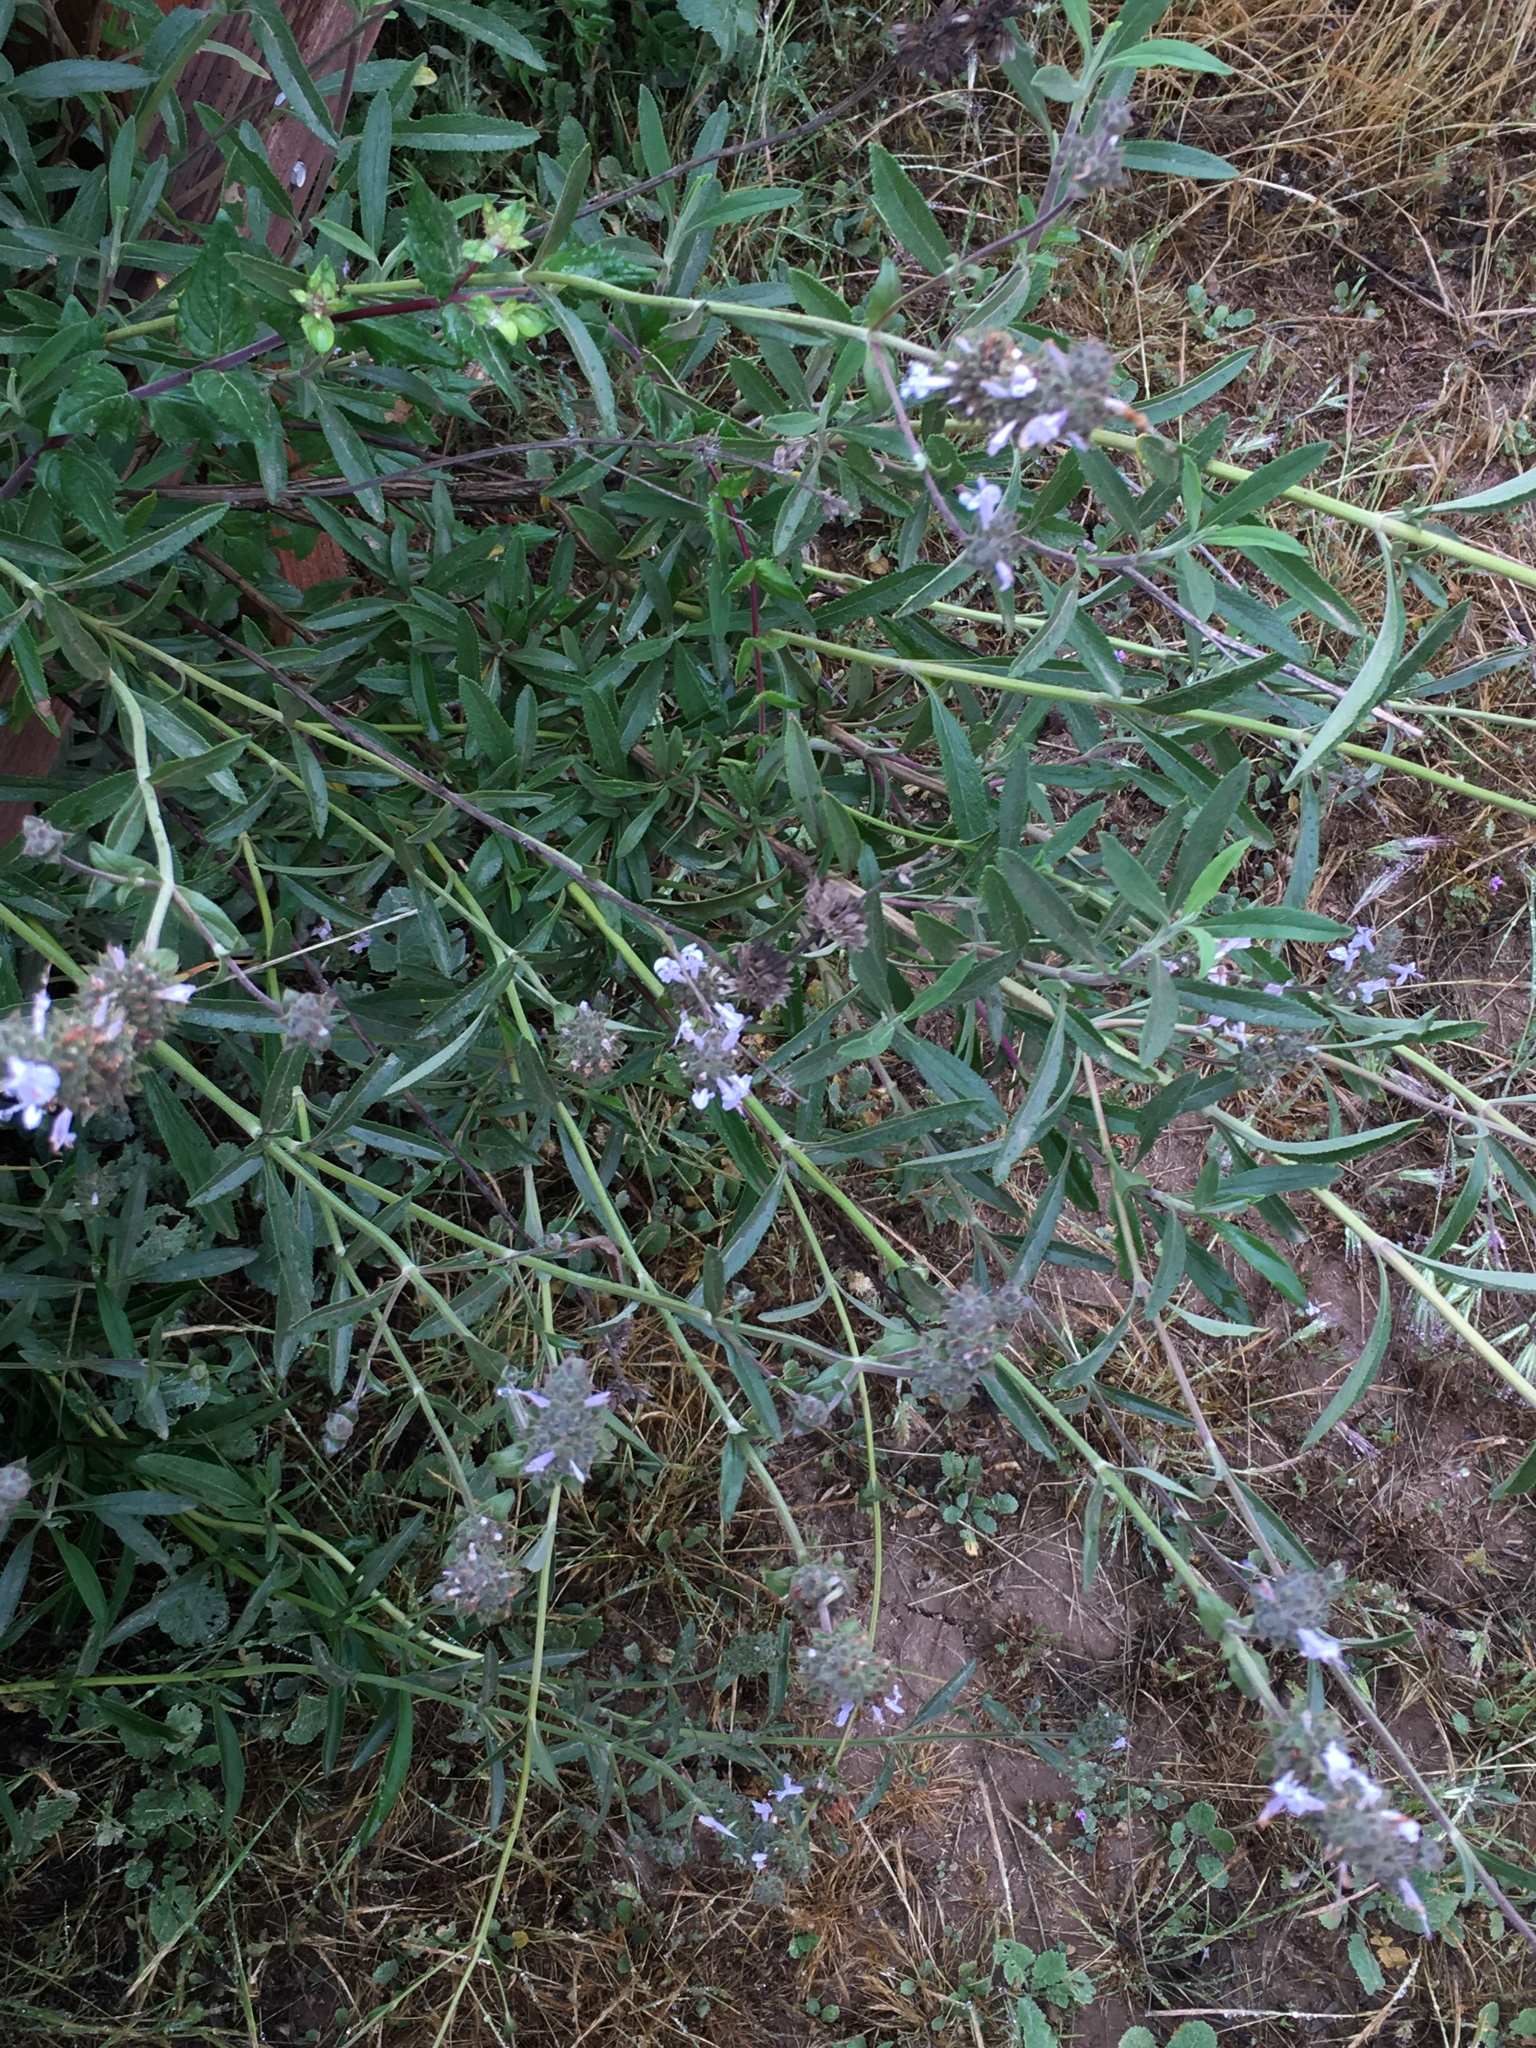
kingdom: Plantae
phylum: Tracheophyta
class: Magnoliopsida
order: Lamiales
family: Lamiaceae
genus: Salvia
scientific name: Salvia mellifera
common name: Black sage
